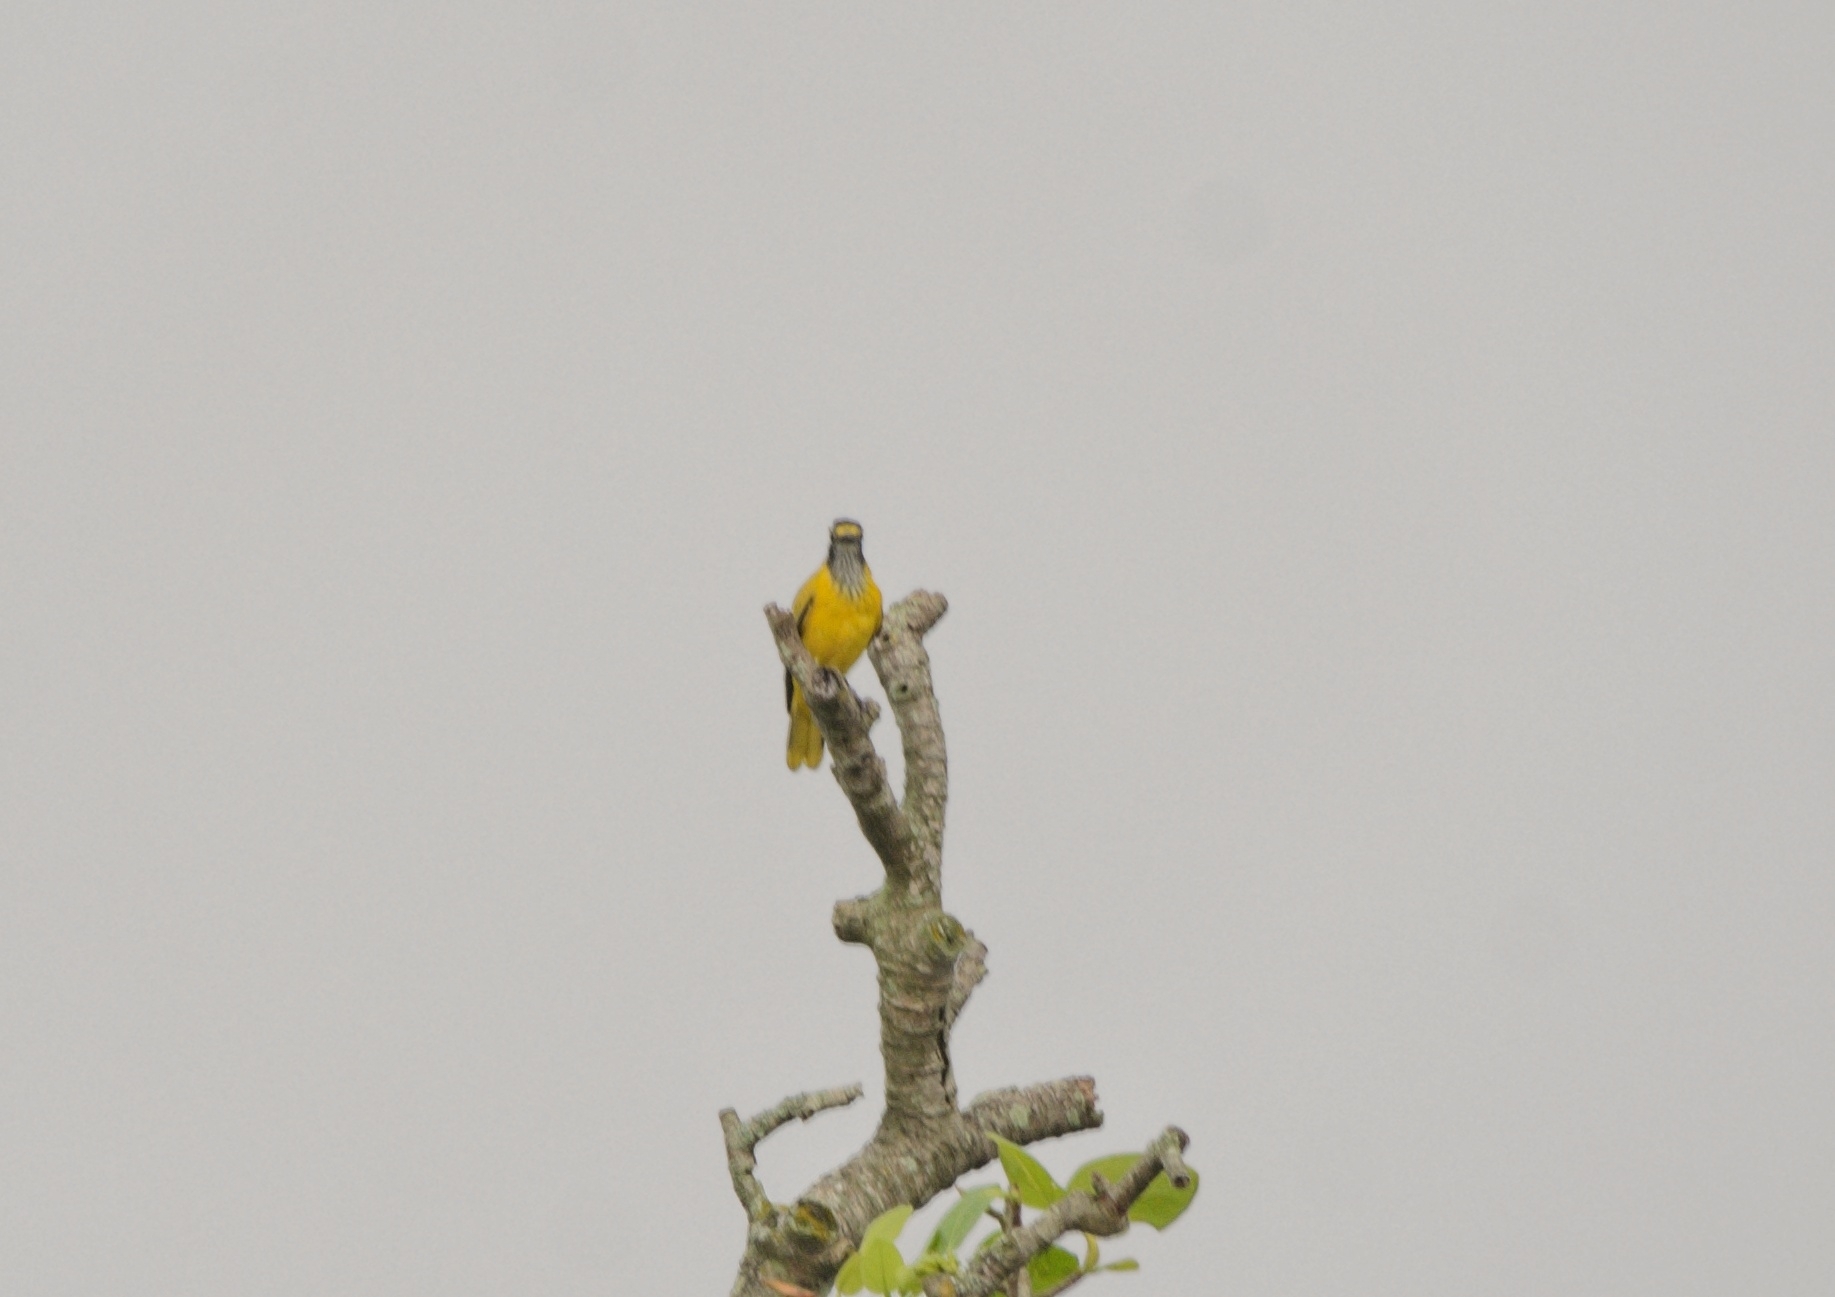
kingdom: Animalia
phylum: Chordata
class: Aves
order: Passeriformes
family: Oriolidae
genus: Oriolus
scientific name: Oriolus xanthornus
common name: Black-hooded oriole
